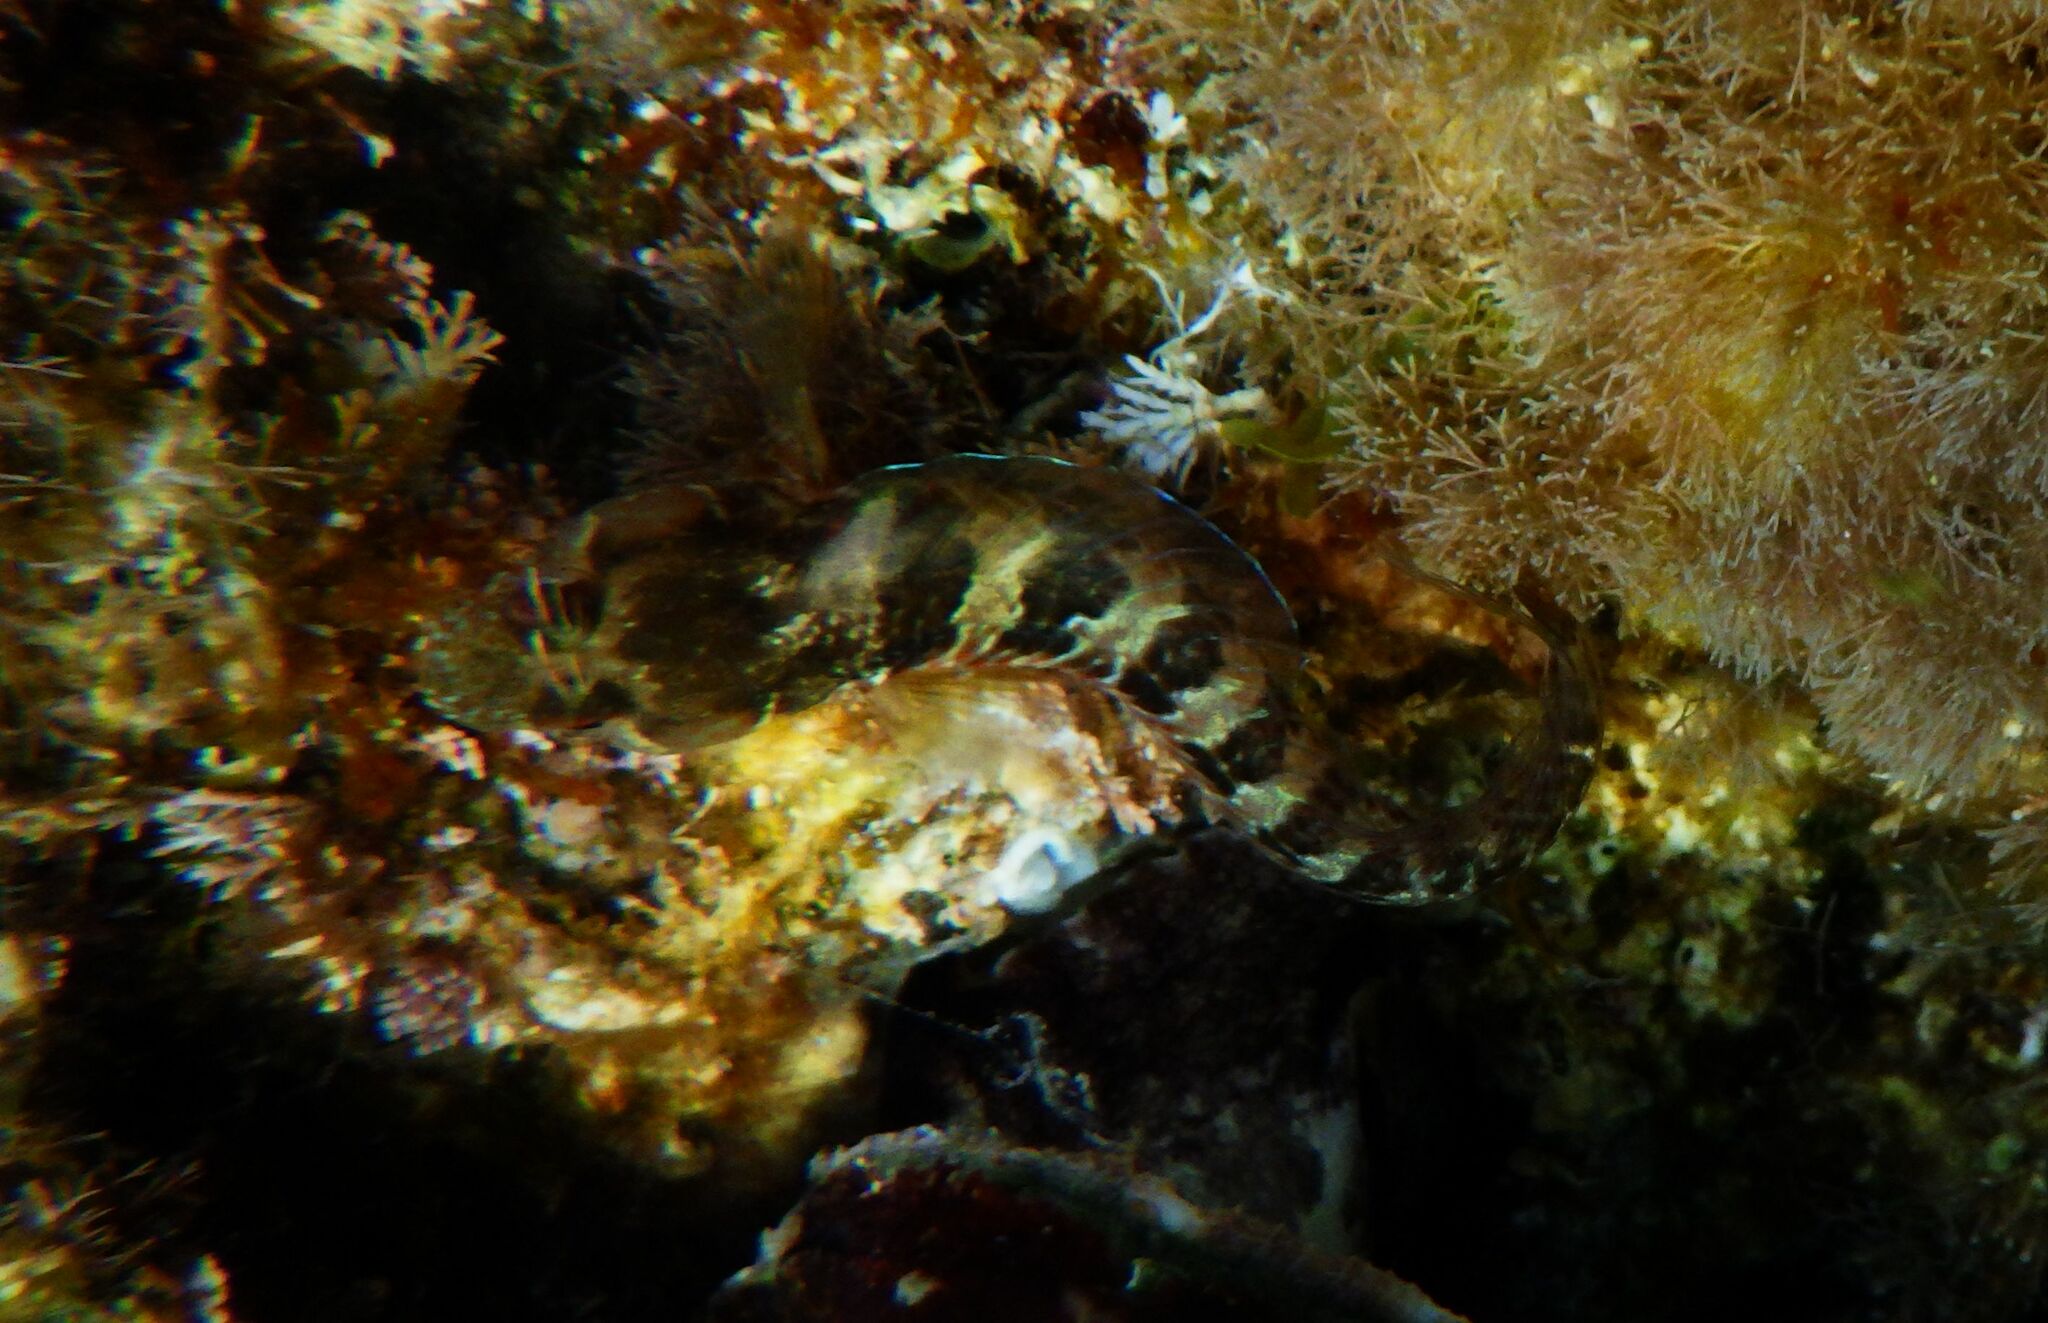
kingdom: Animalia
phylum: Chordata
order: Perciformes
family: Blenniidae
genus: Parablennius
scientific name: Parablennius incognitus
